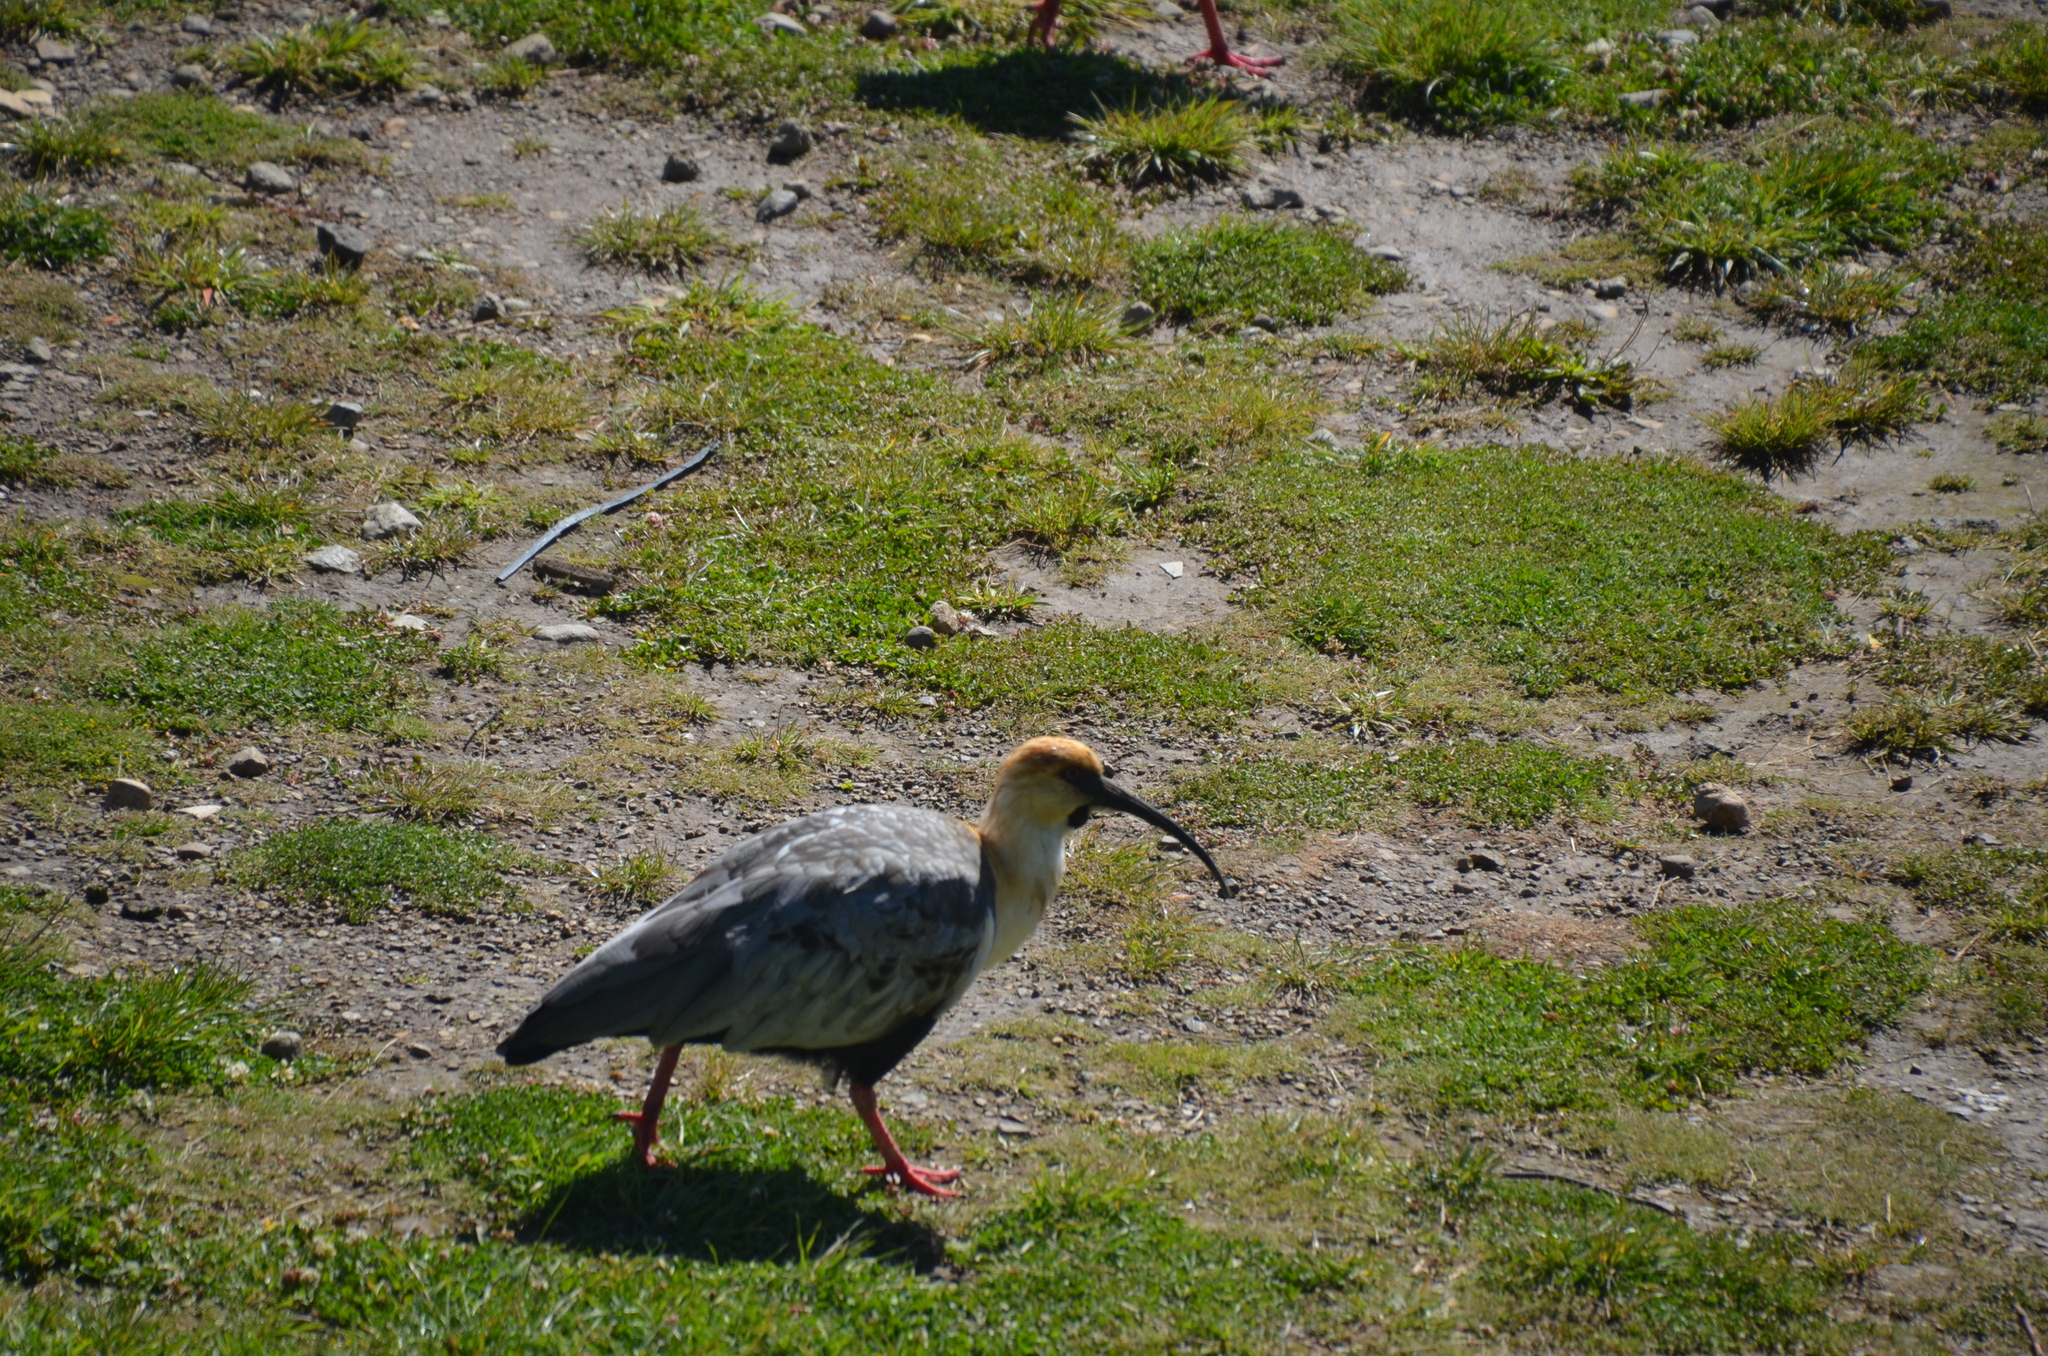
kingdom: Animalia
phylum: Chordata
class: Aves
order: Pelecaniformes
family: Threskiornithidae
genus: Theristicus
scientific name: Theristicus melanopis
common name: Black-faced ibis
